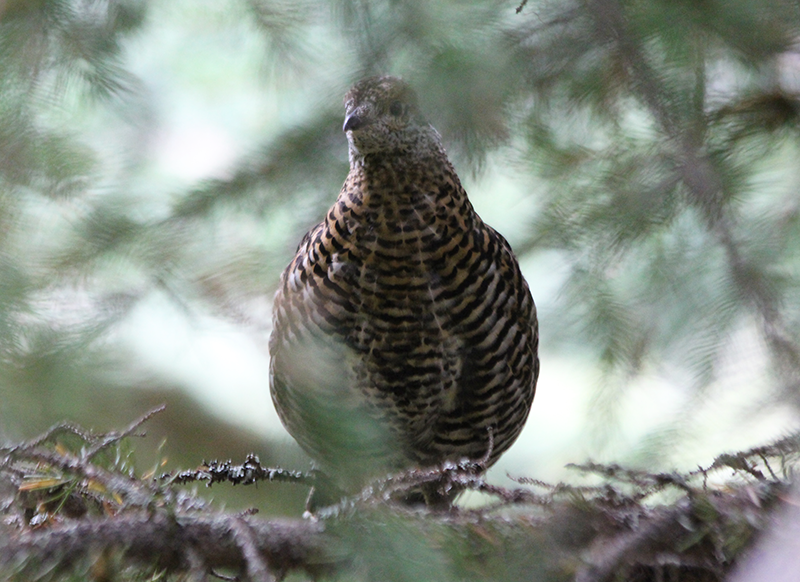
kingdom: Animalia
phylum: Chordata
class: Aves
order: Galliformes
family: Phasianidae
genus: Canachites
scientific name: Canachites canadensis
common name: Spruce grouse
